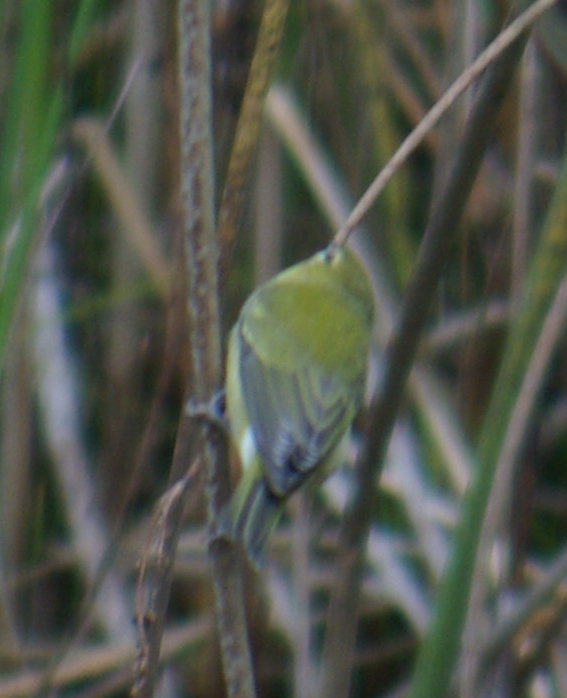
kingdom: Animalia
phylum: Chordata
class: Aves
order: Passeriformes
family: Parulidae
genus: Leiothlypis
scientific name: Leiothlypis peregrina
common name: Tennessee warbler
